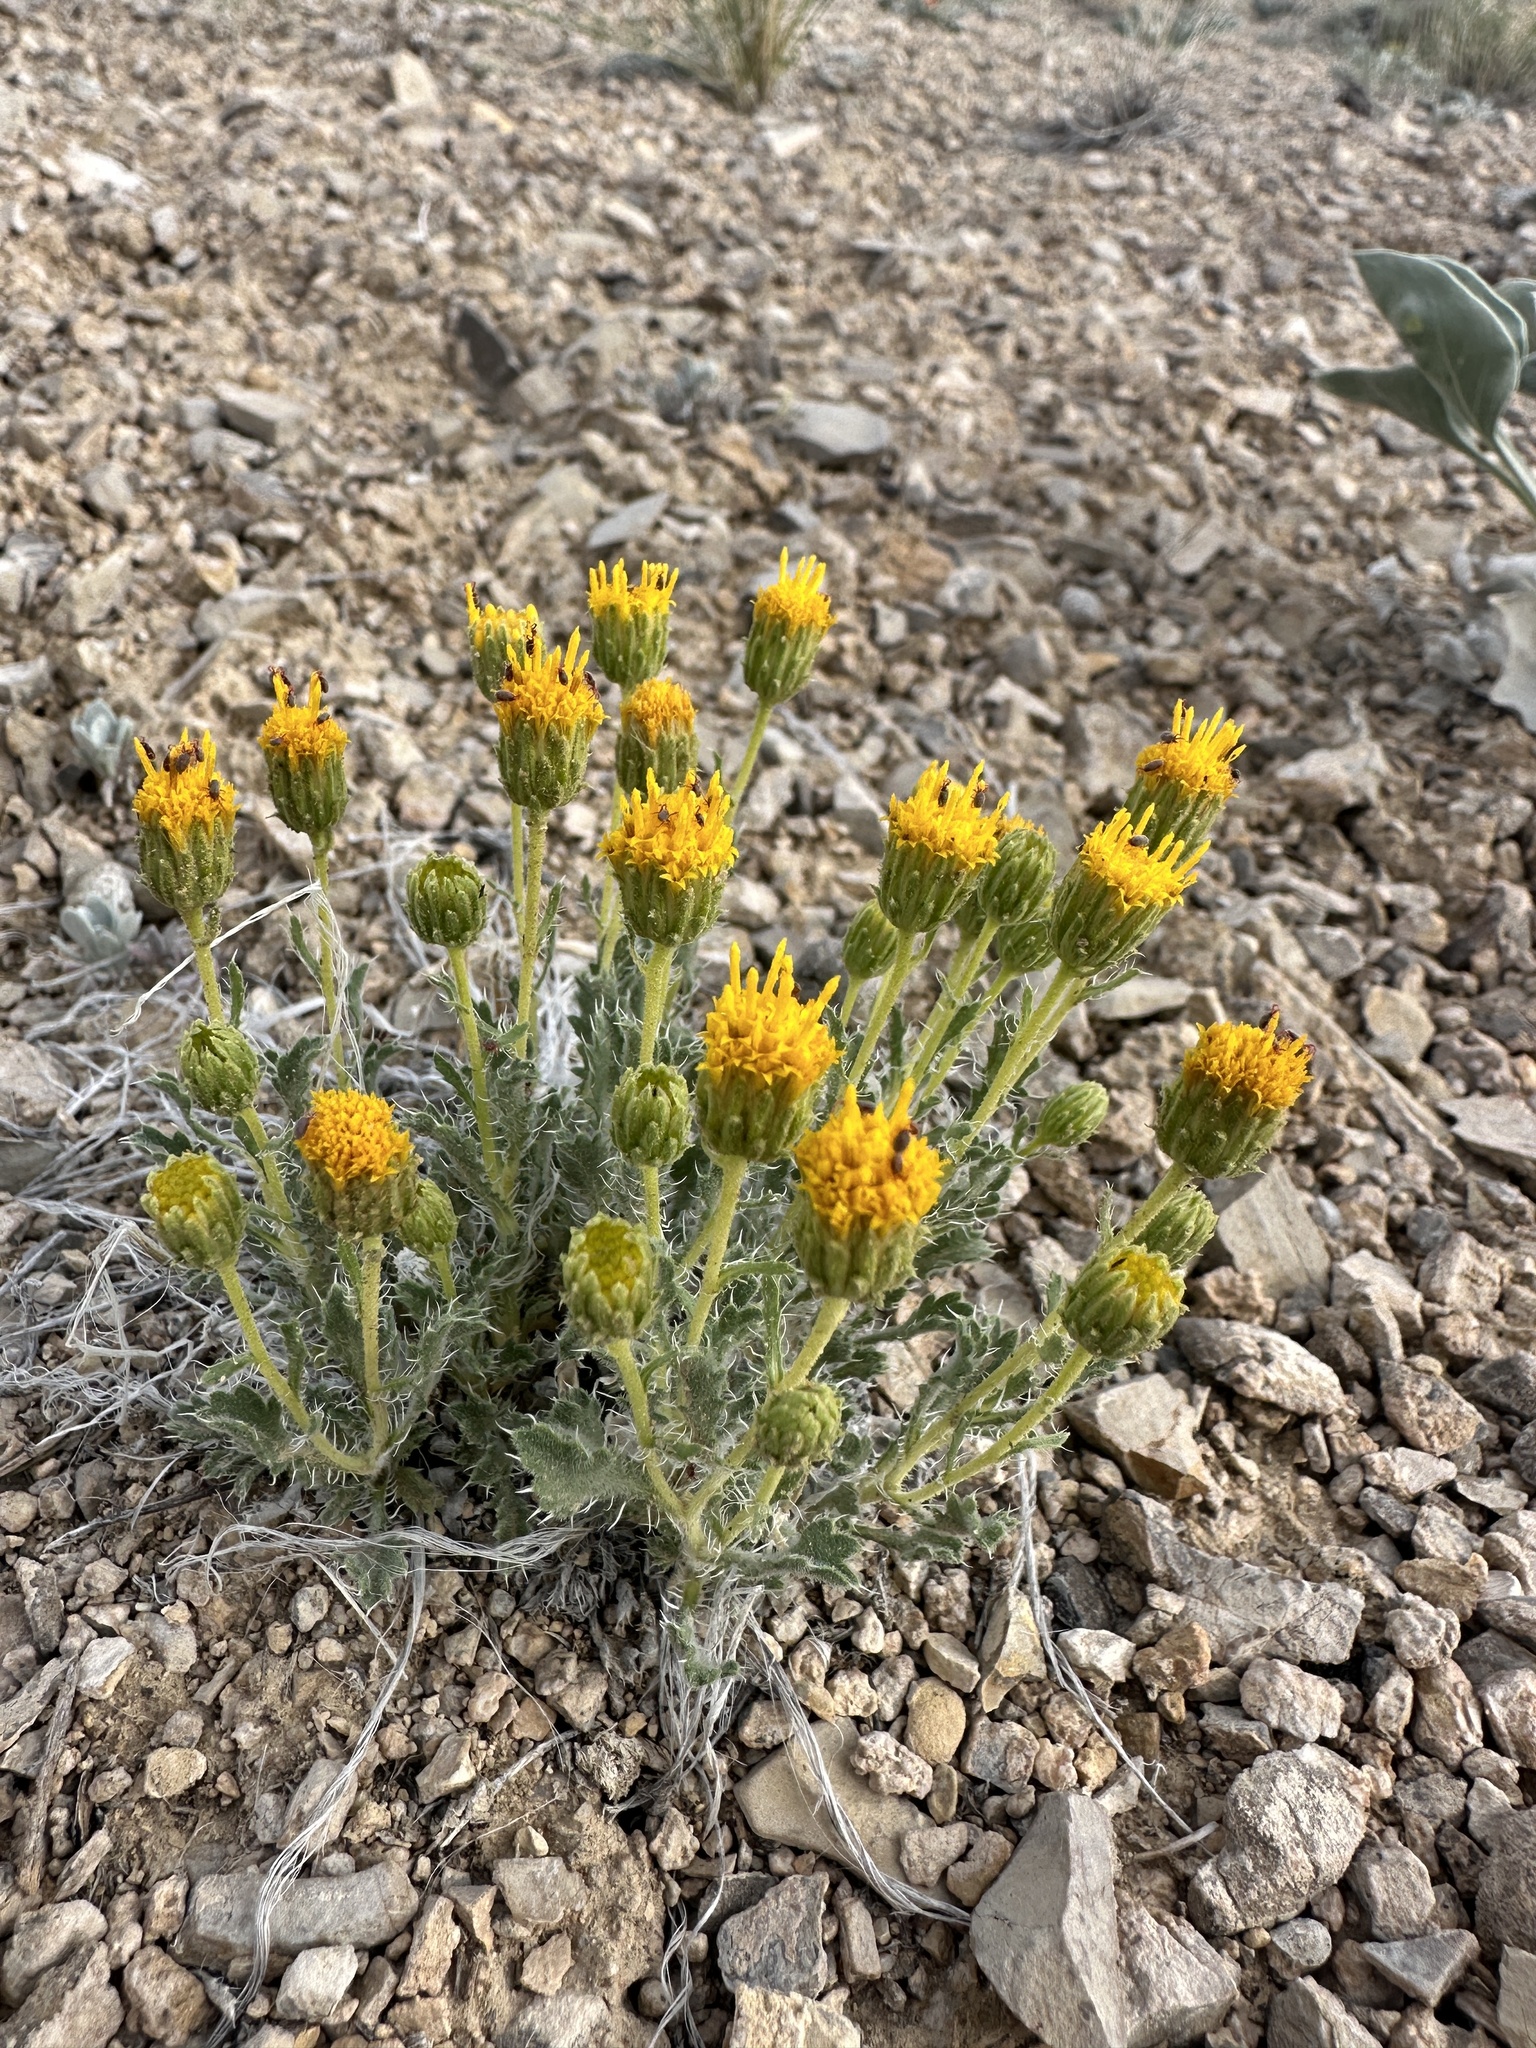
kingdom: Plantae
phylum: Tracheophyta
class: Magnoliopsida
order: Asterales
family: Asteraceae
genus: Xanthisma
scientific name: Xanthisma grindelioides
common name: Goldenweed
